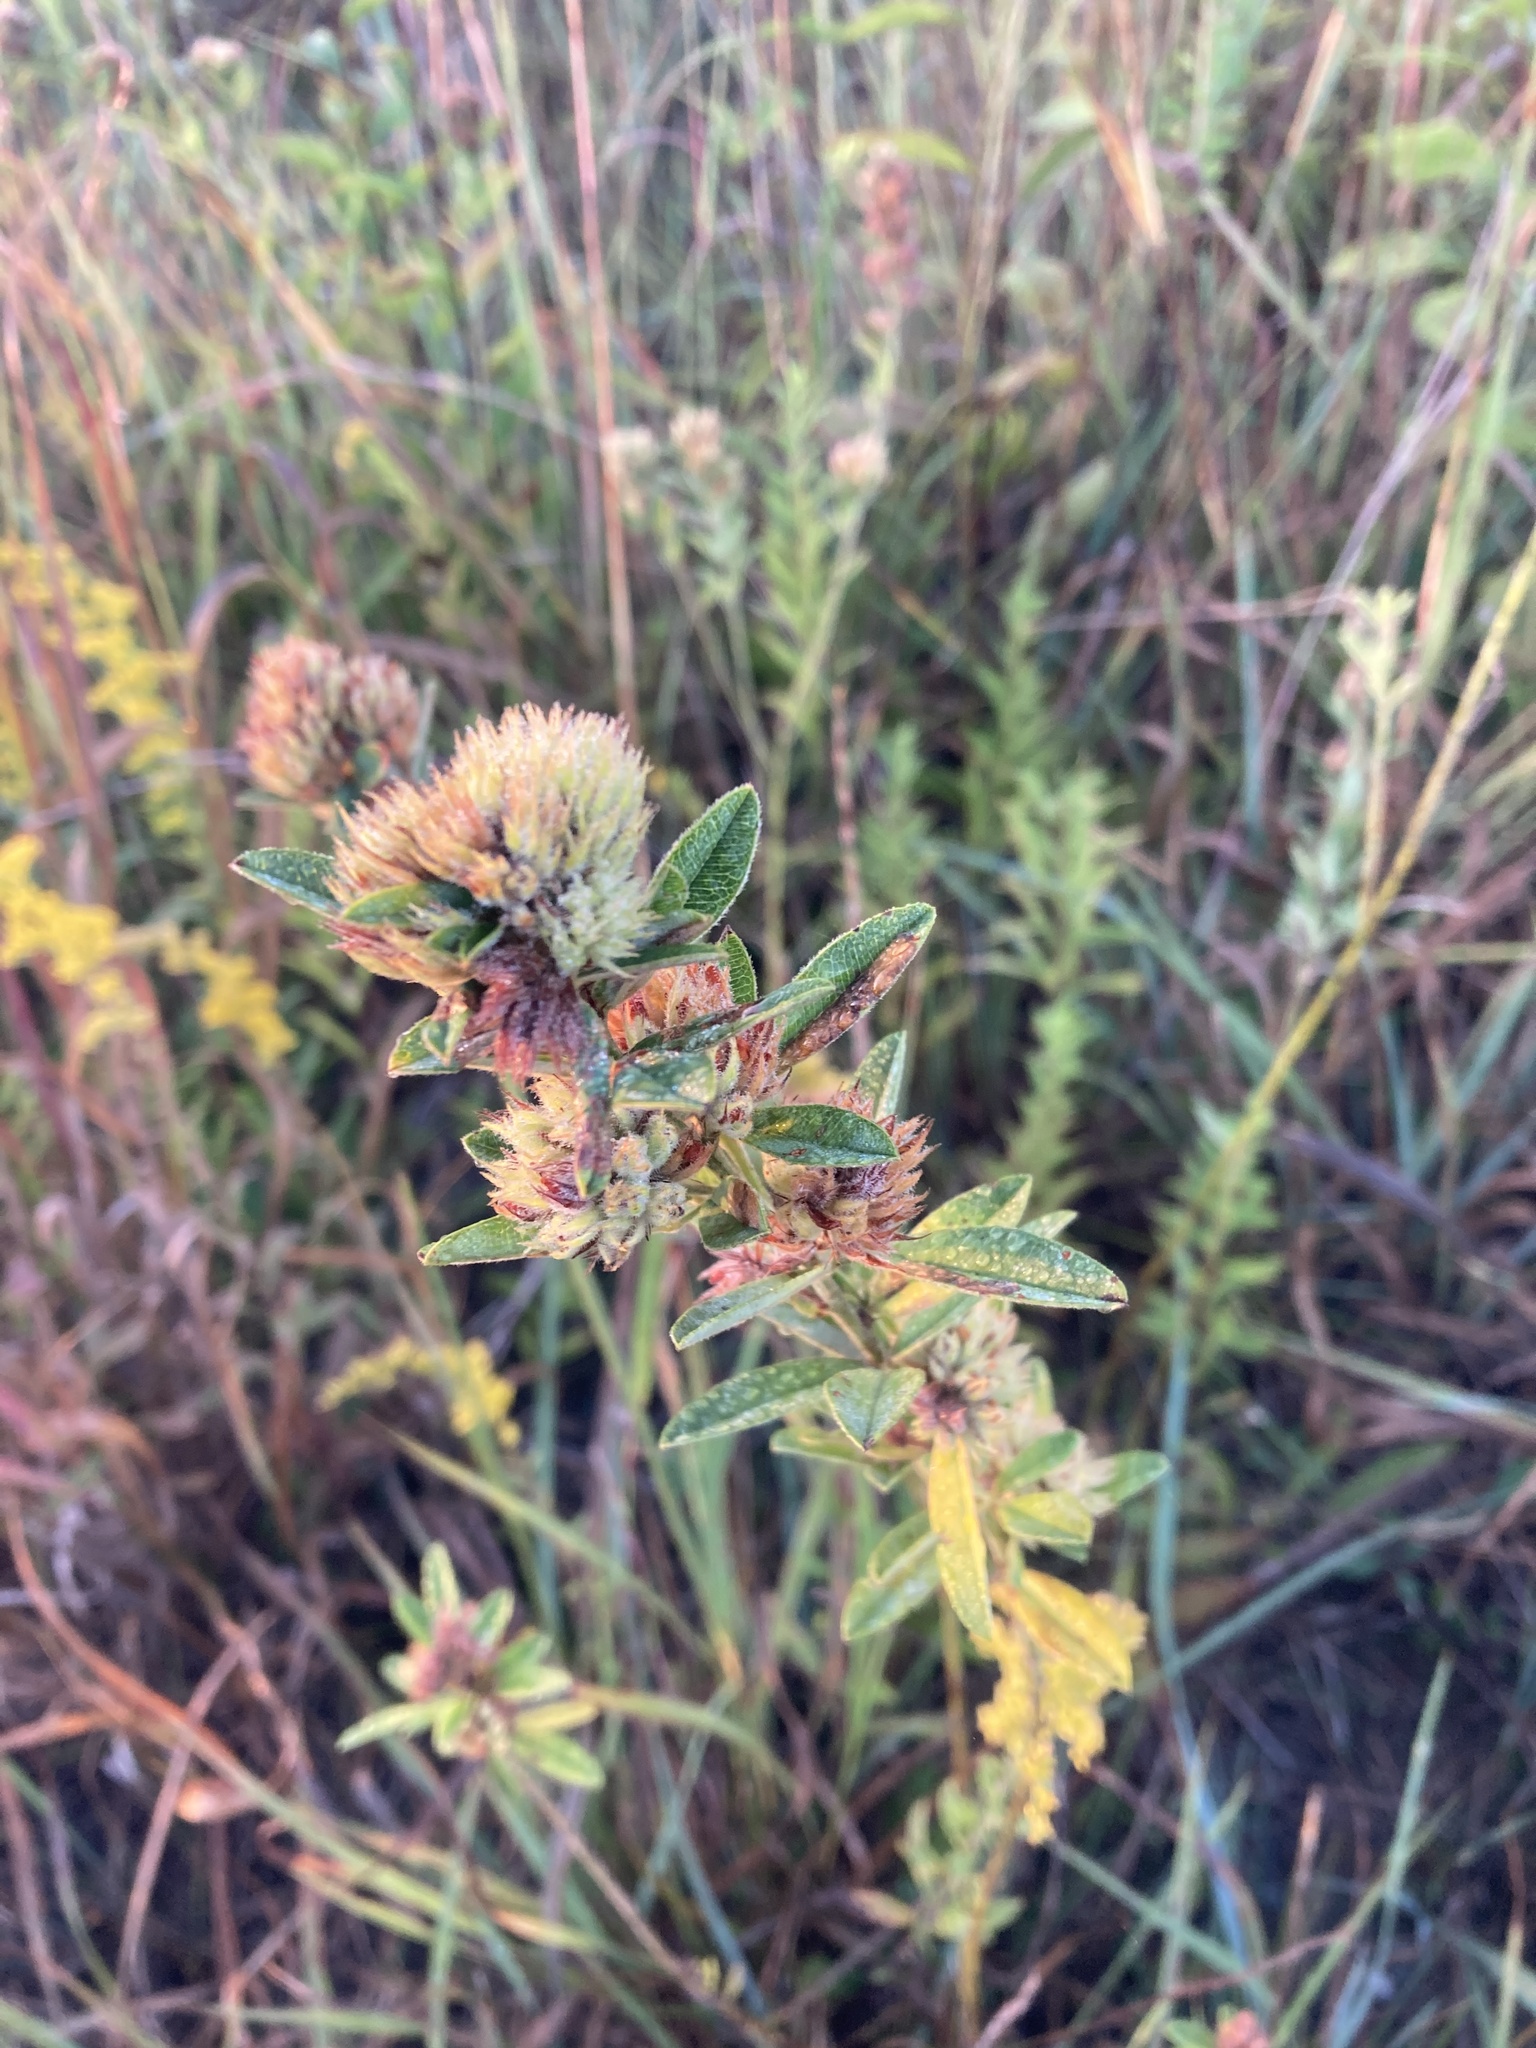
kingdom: Plantae
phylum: Tracheophyta
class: Magnoliopsida
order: Fabales
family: Fabaceae
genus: Lespedeza
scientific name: Lespedeza capitata
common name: Dusty clover
